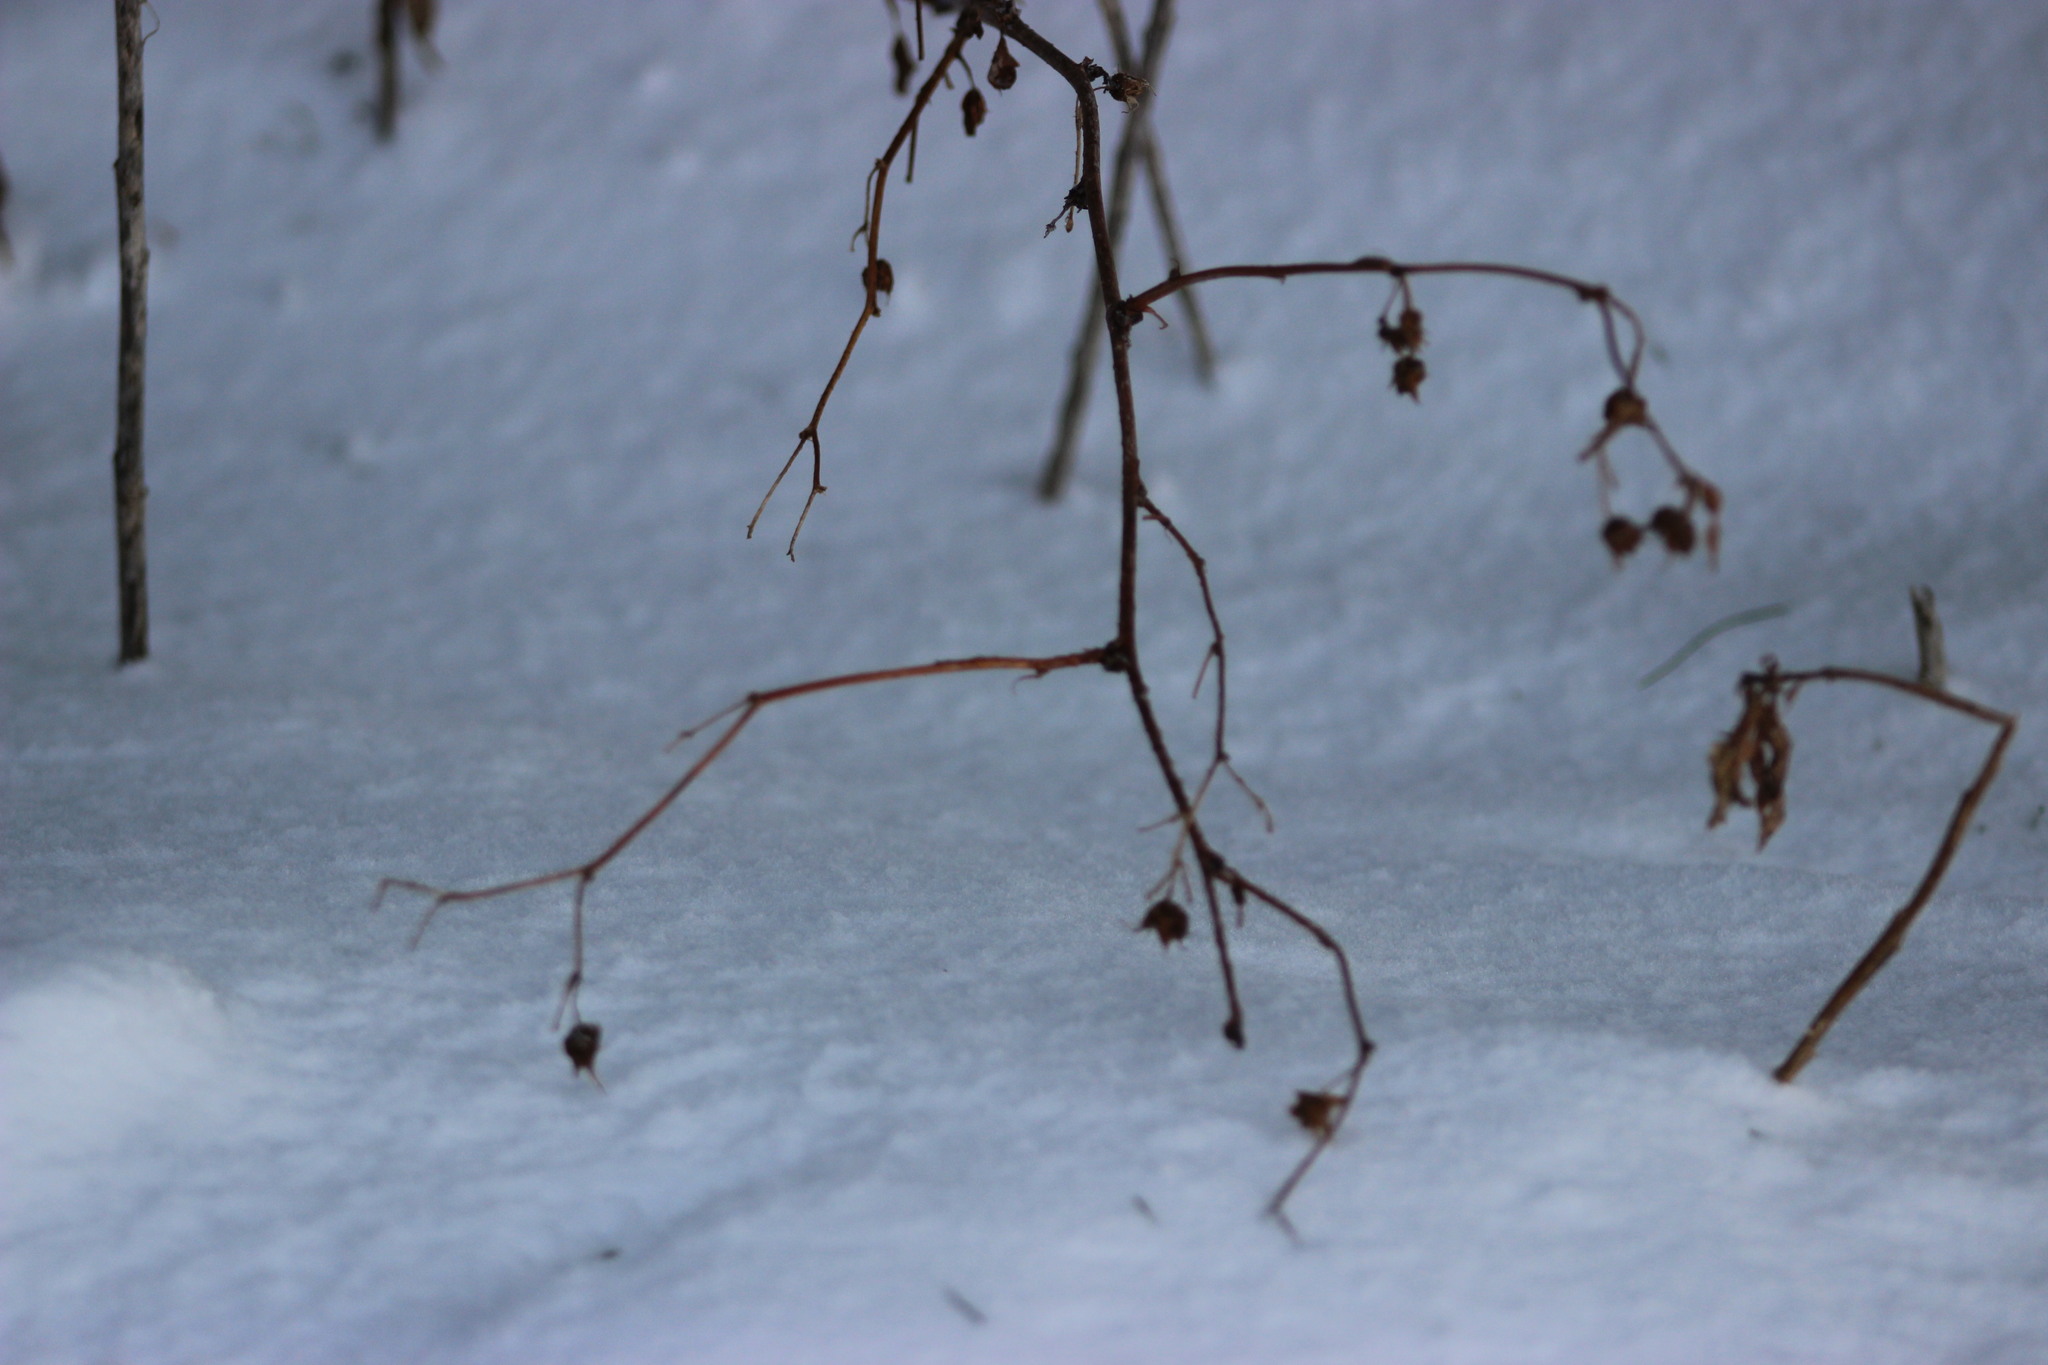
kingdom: Plantae
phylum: Tracheophyta
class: Magnoliopsida
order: Rosales
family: Rosaceae
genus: Rubus
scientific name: Rubus idaeus
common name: Raspberry
